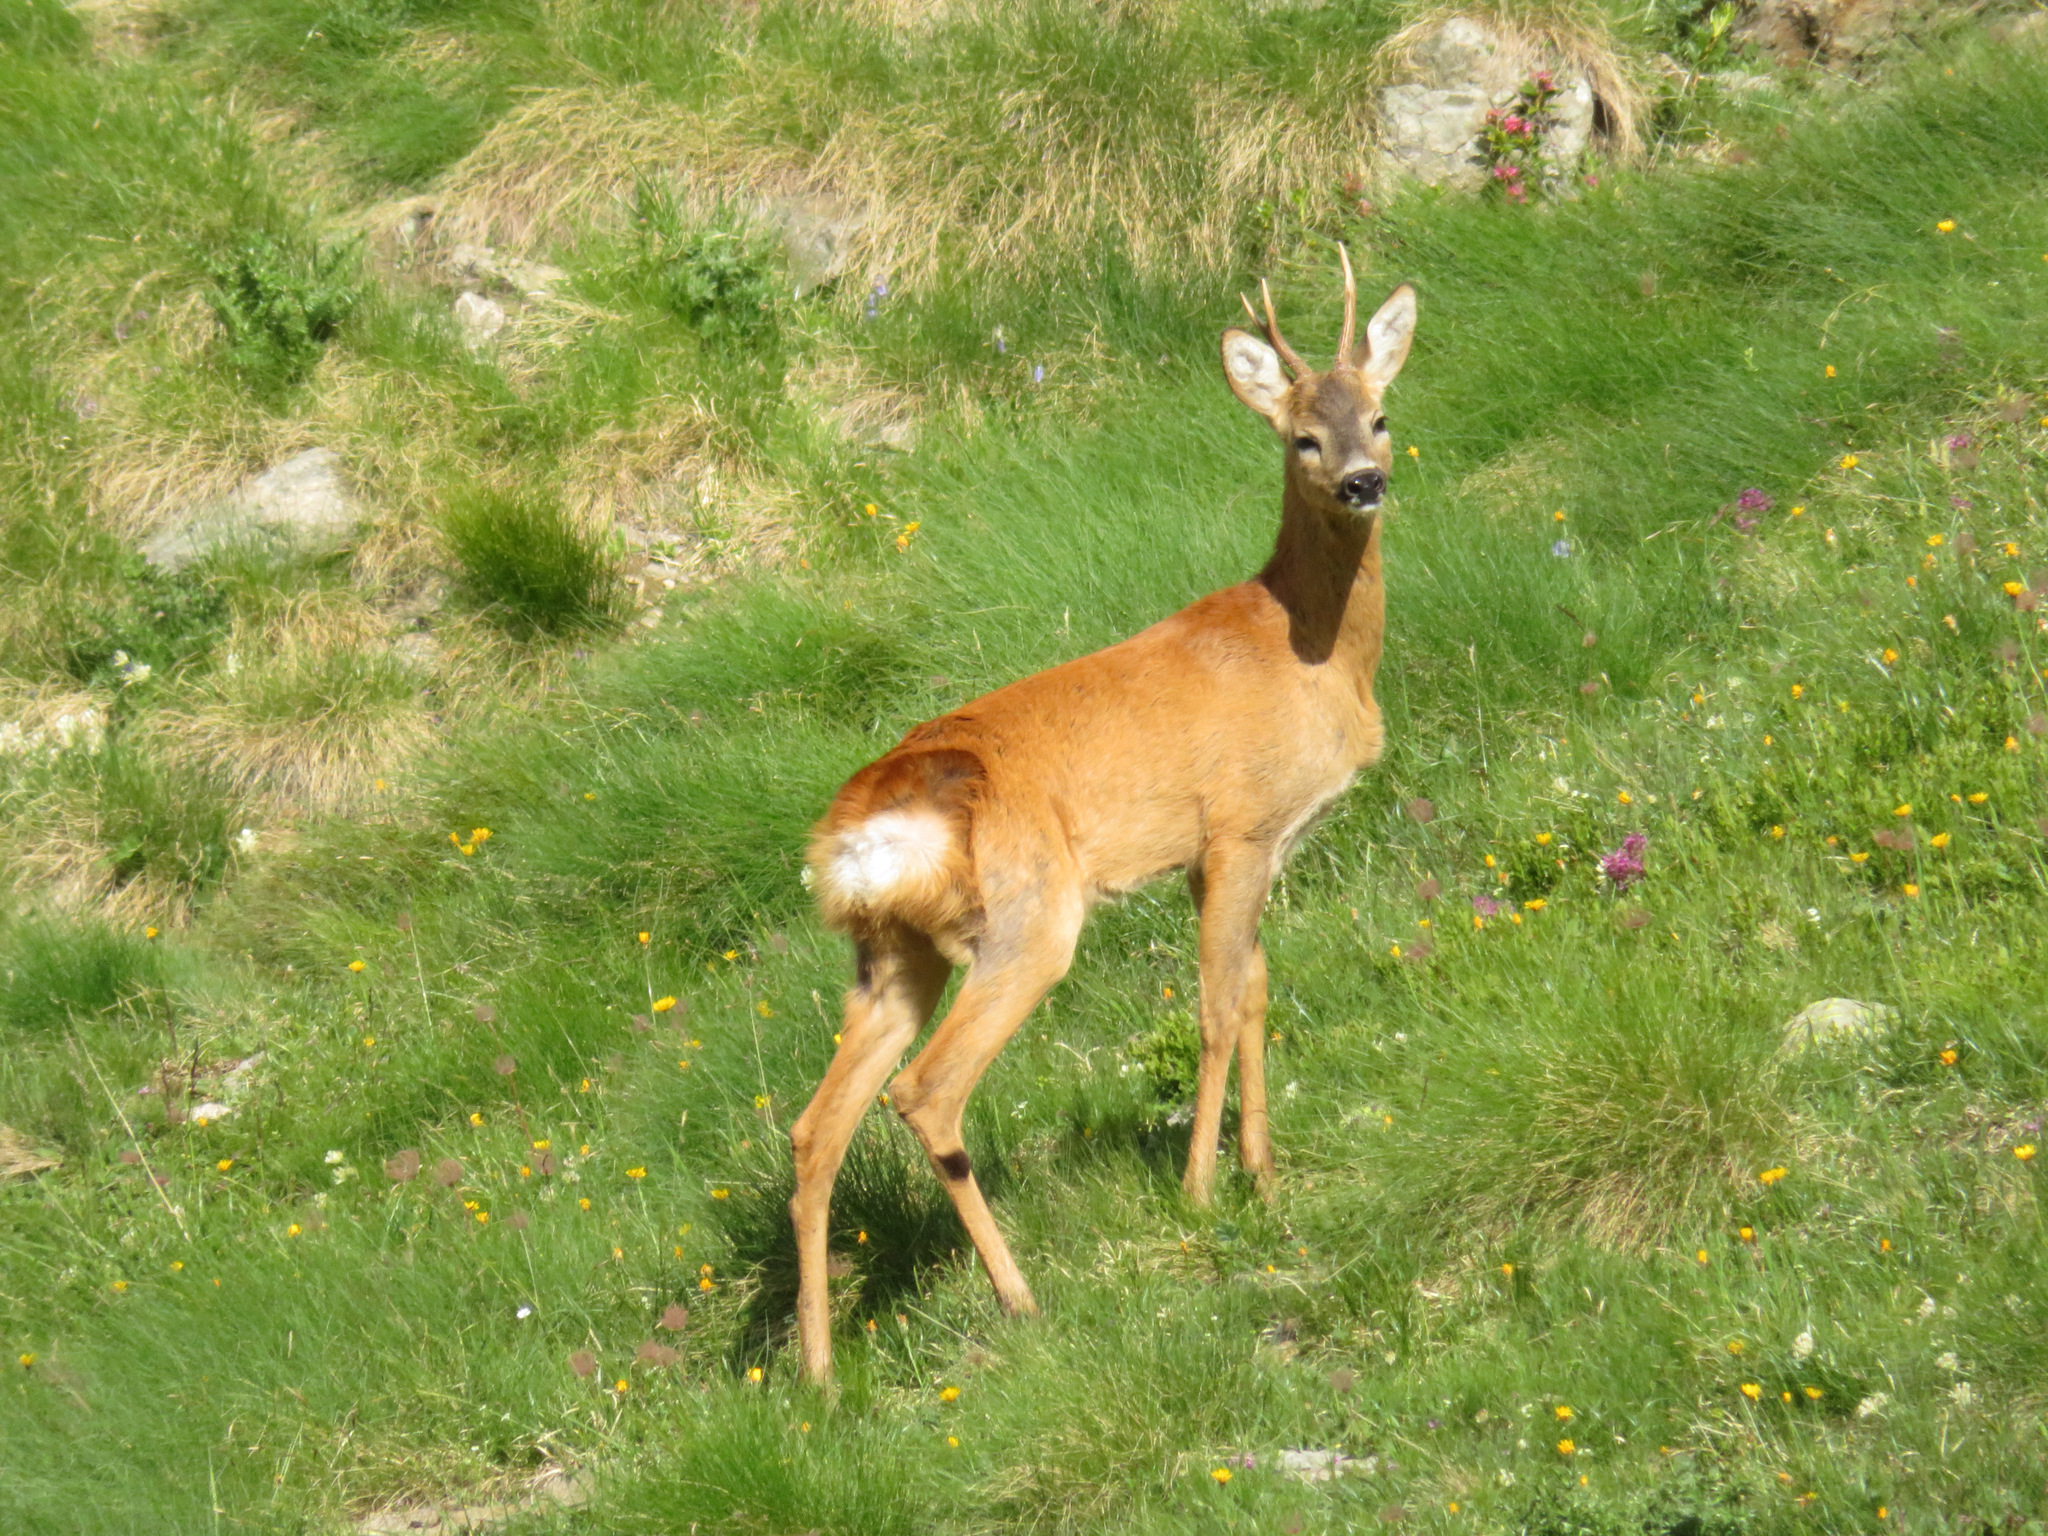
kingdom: Animalia
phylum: Chordata
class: Mammalia
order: Artiodactyla
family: Cervidae
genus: Capreolus
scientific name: Capreolus capreolus
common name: Western roe deer
